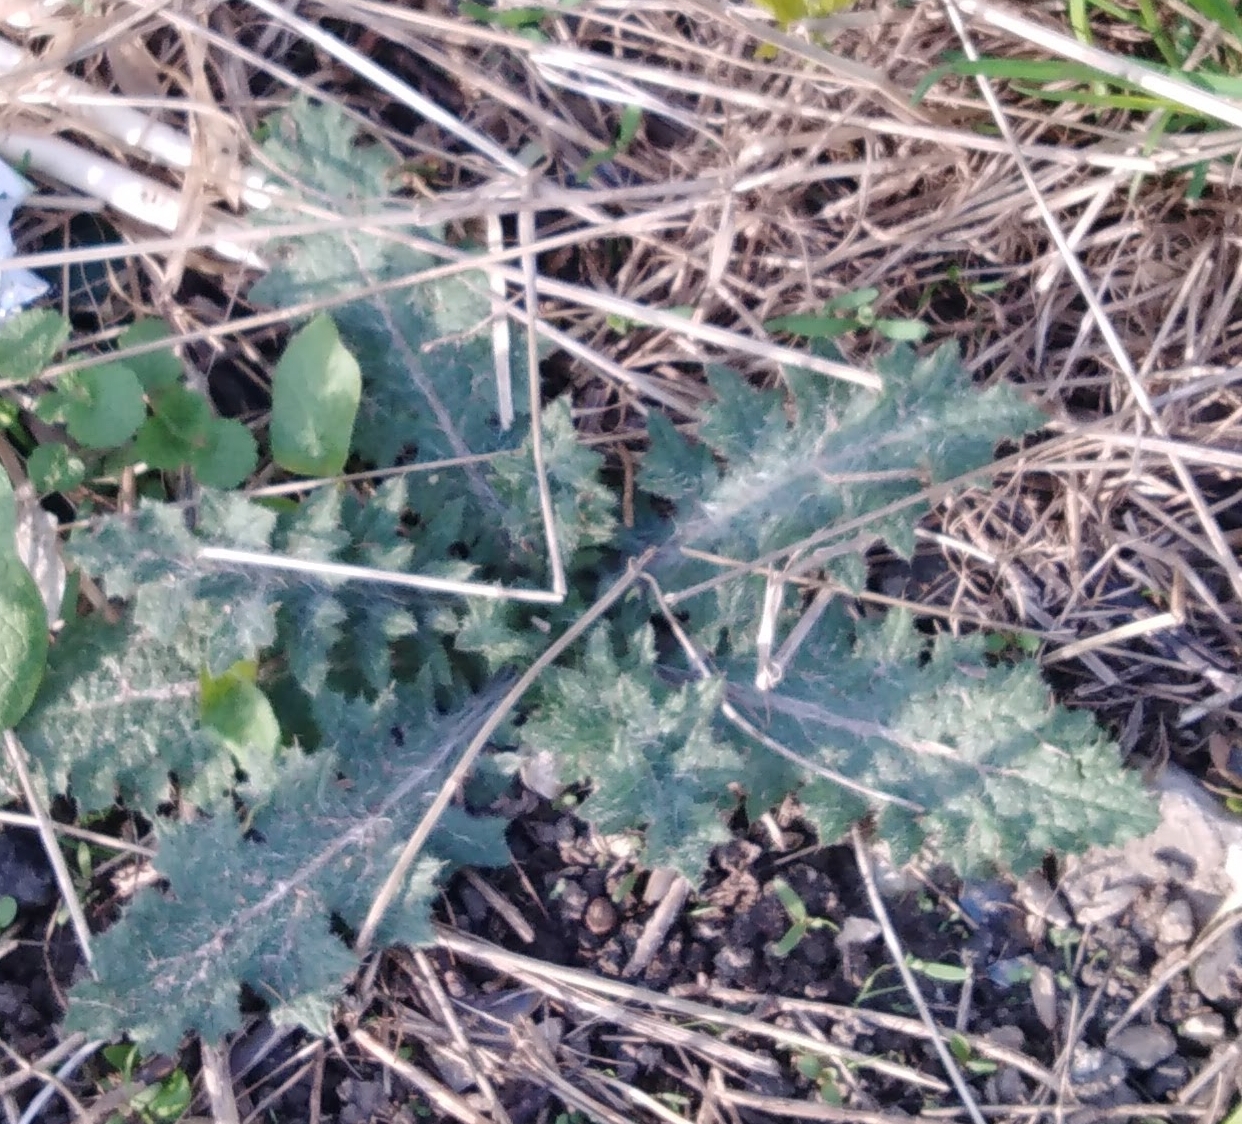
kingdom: Plantae
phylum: Tracheophyta
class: Magnoliopsida
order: Asterales
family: Asteraceae
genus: Cirsium
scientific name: Cirsium vulgare
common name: Bull thistle
